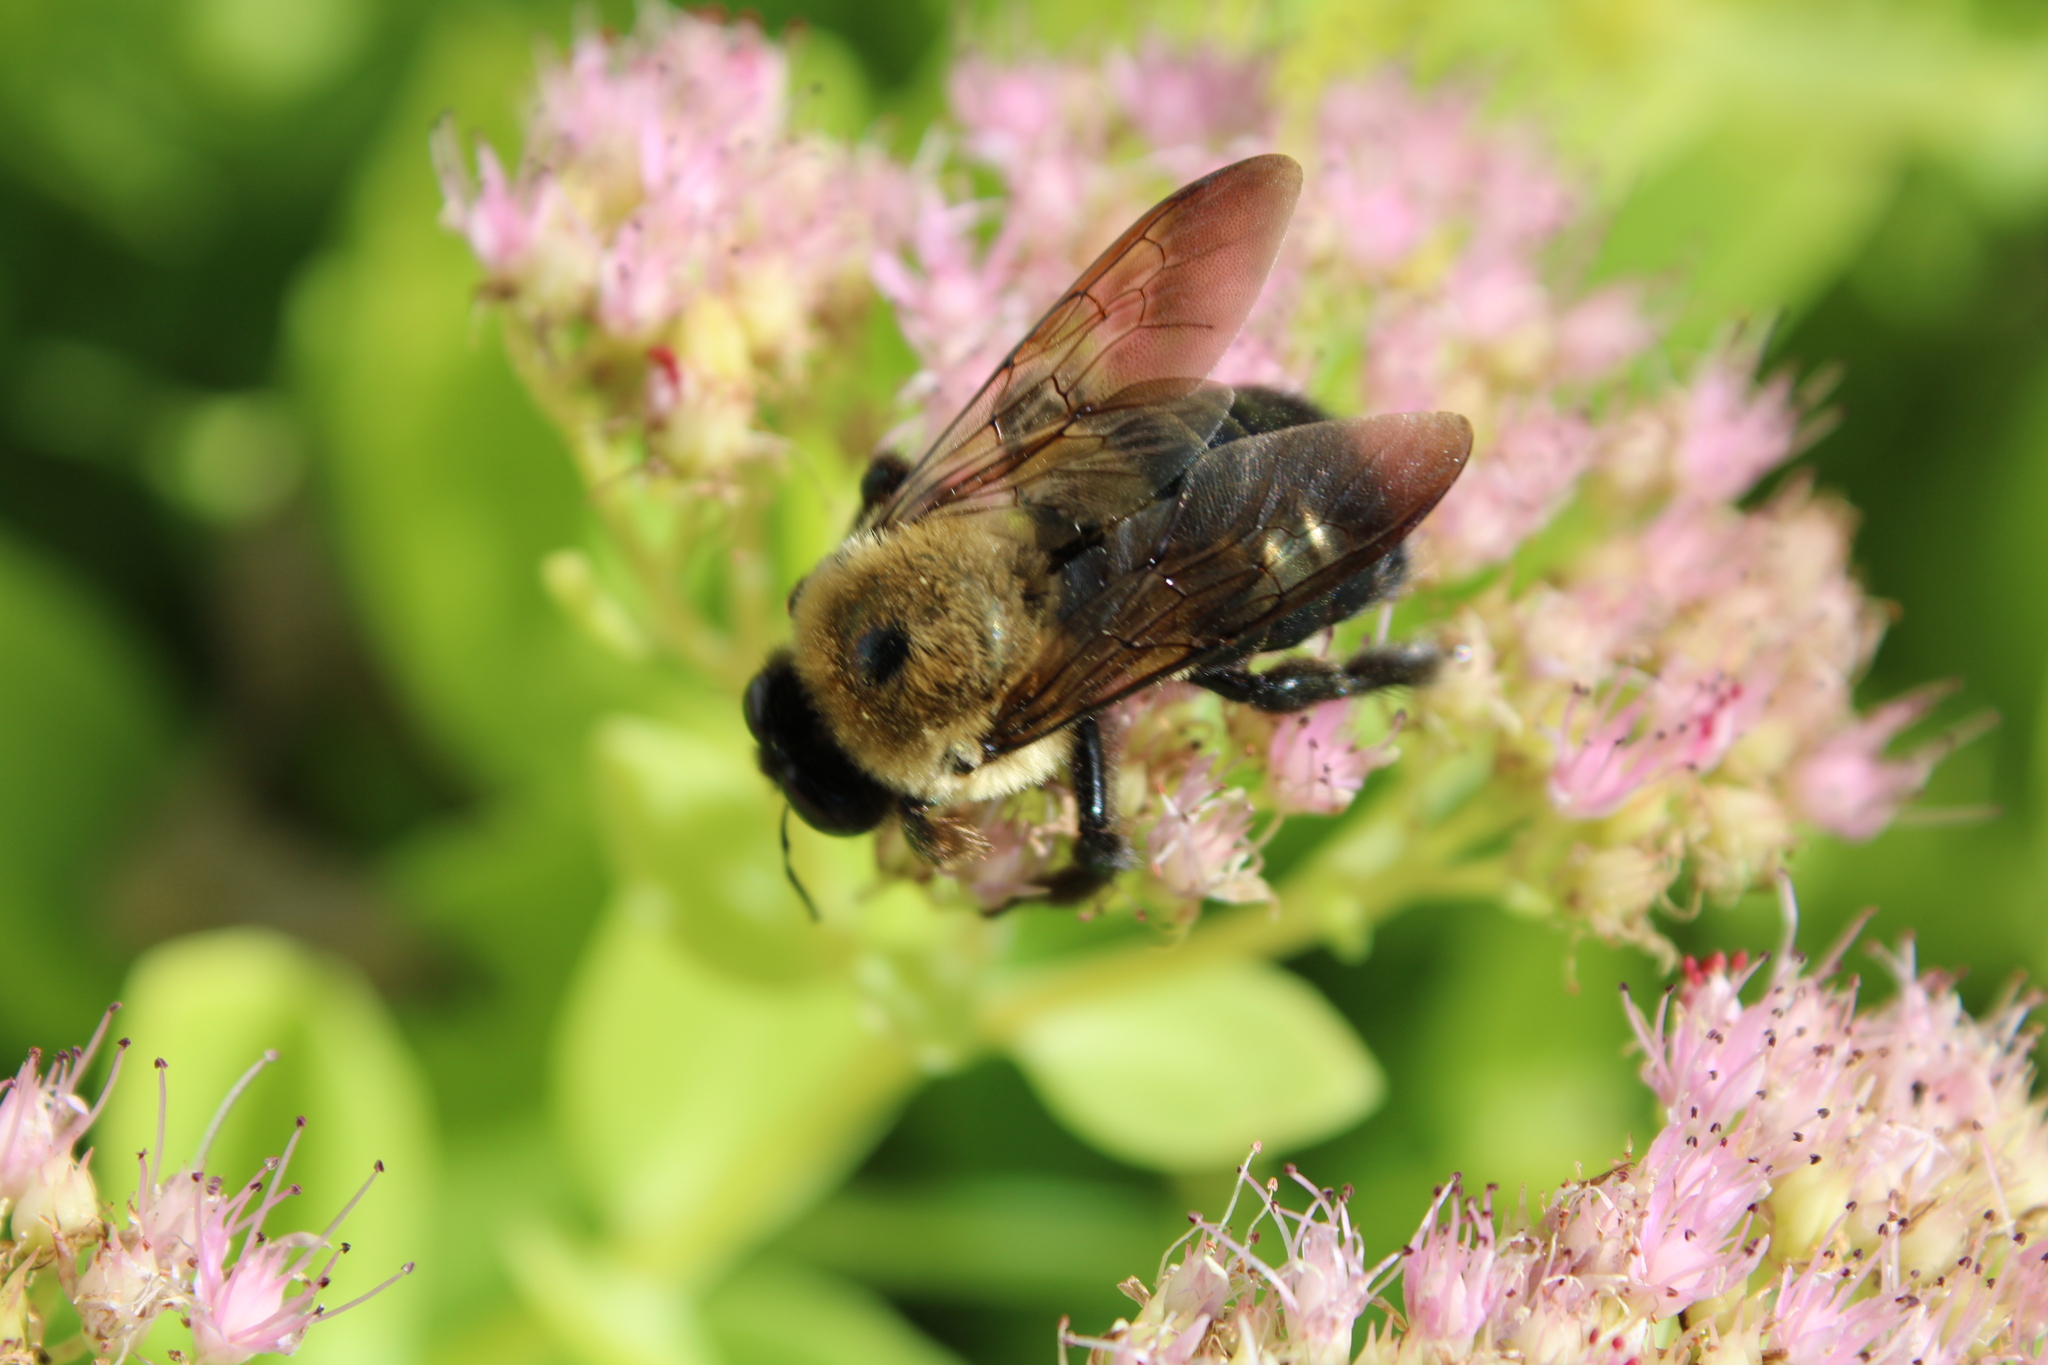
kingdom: Animalia
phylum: Arthropoda
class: Insecta
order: Hymenoptera
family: Apidae
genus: Xylocopa
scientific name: Xylocopa virginica
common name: Carpenter bee
